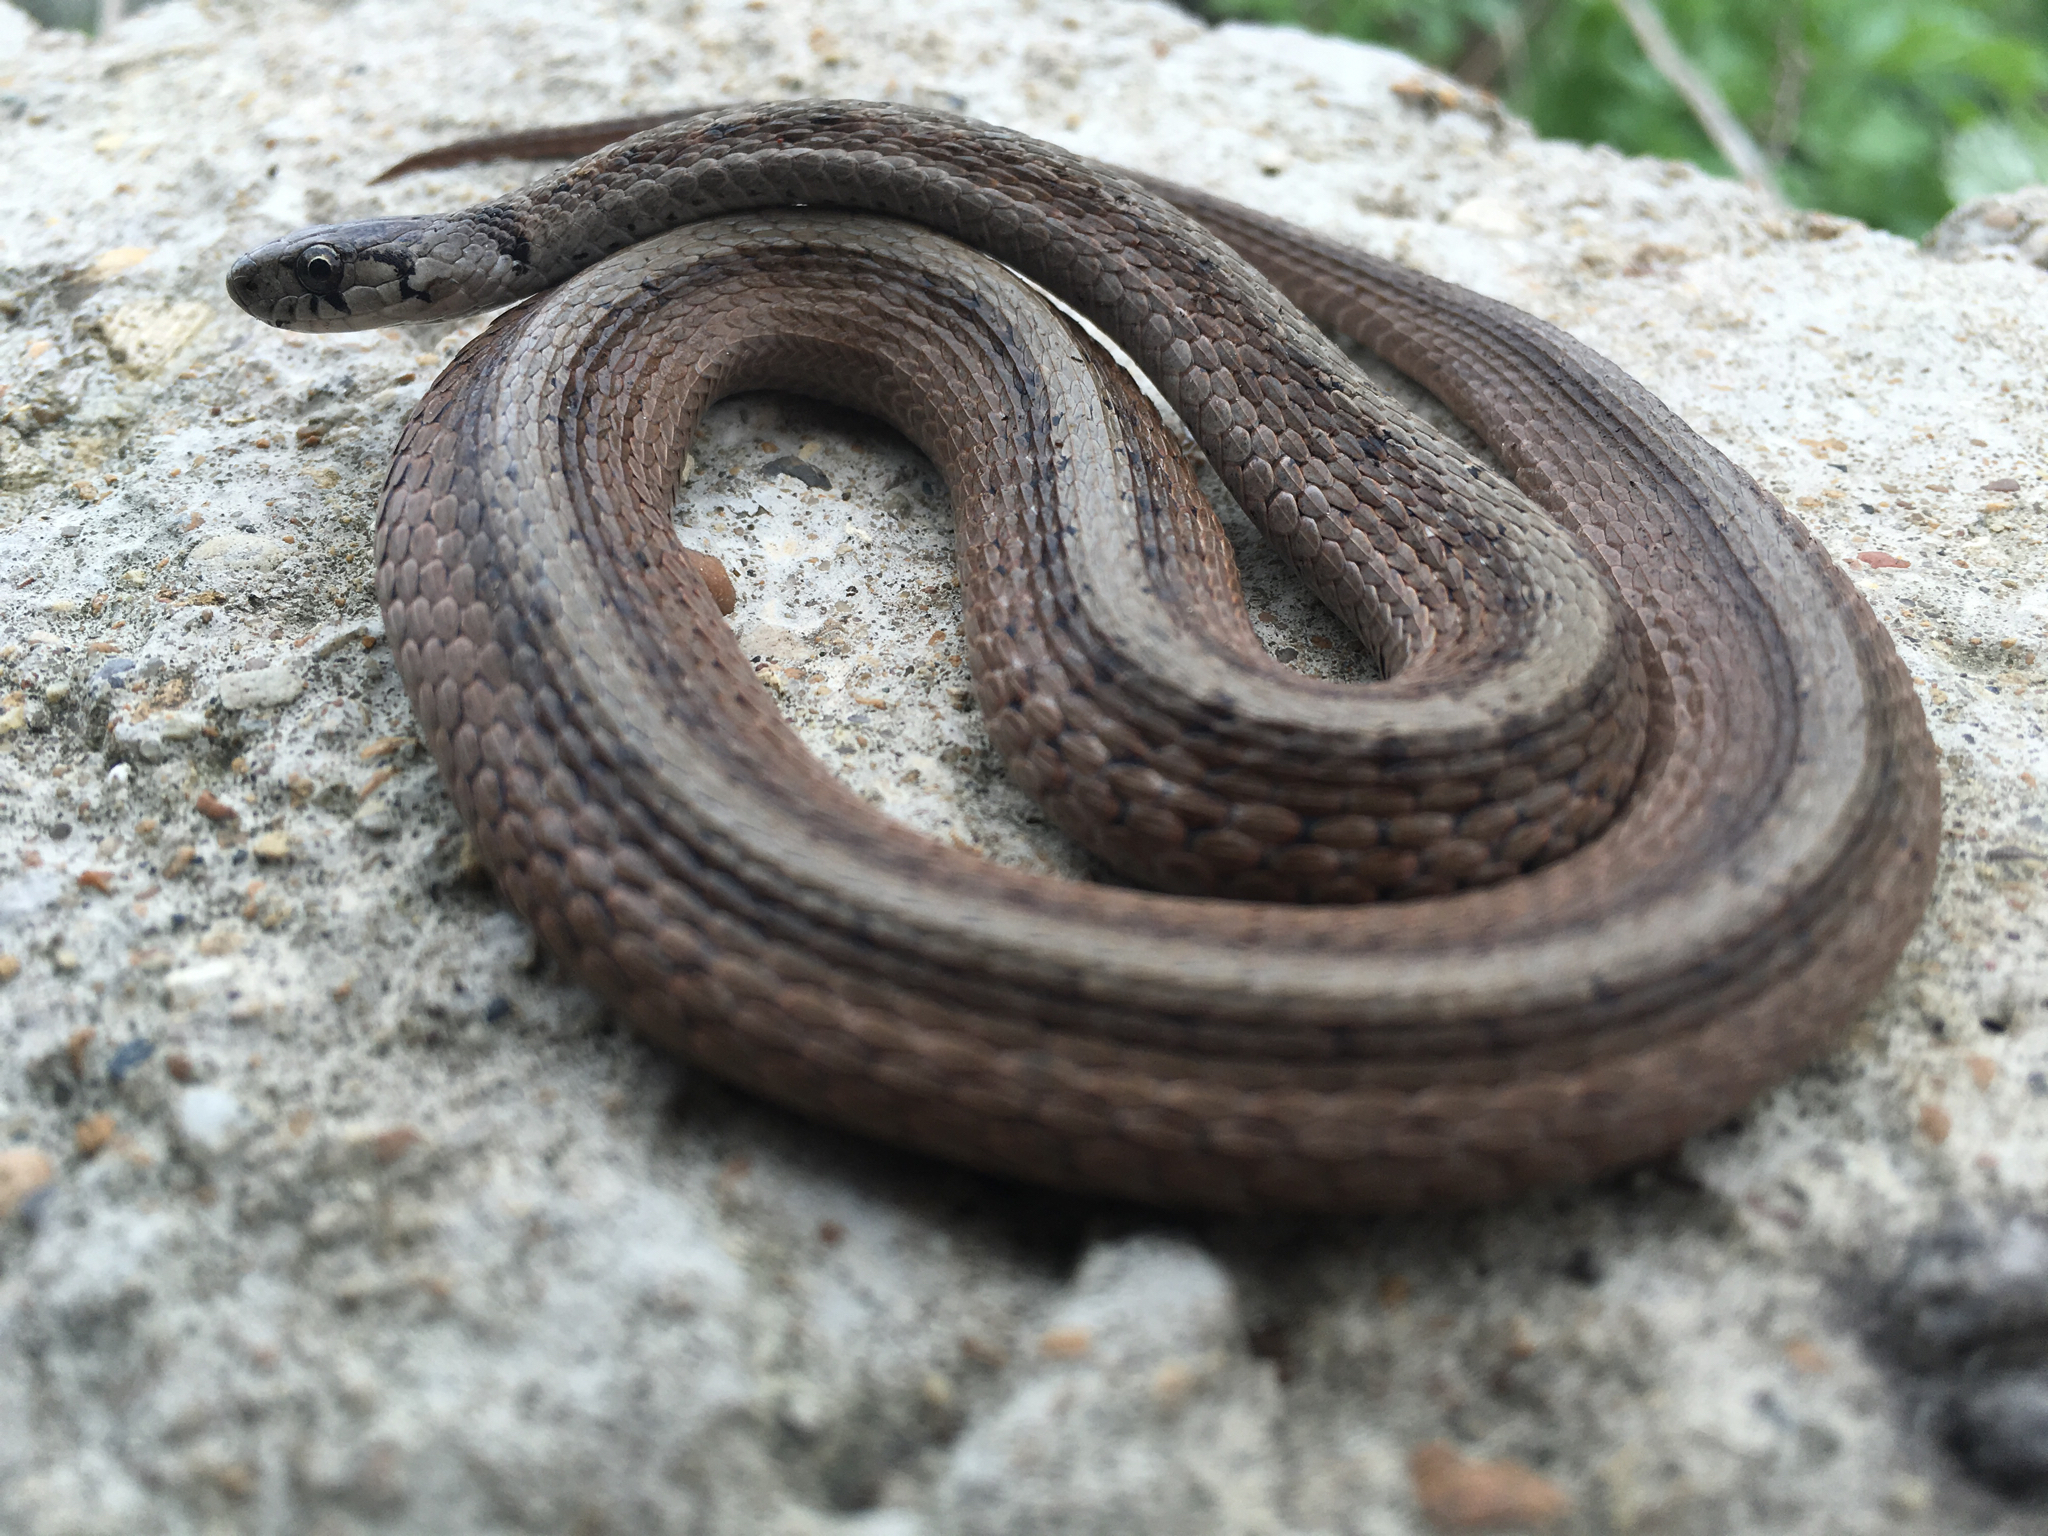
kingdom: Animalia
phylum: Chordata
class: Squamata
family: Colubridae
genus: Storeria
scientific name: Storeria dekayi
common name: (dekay’s) brown snake
